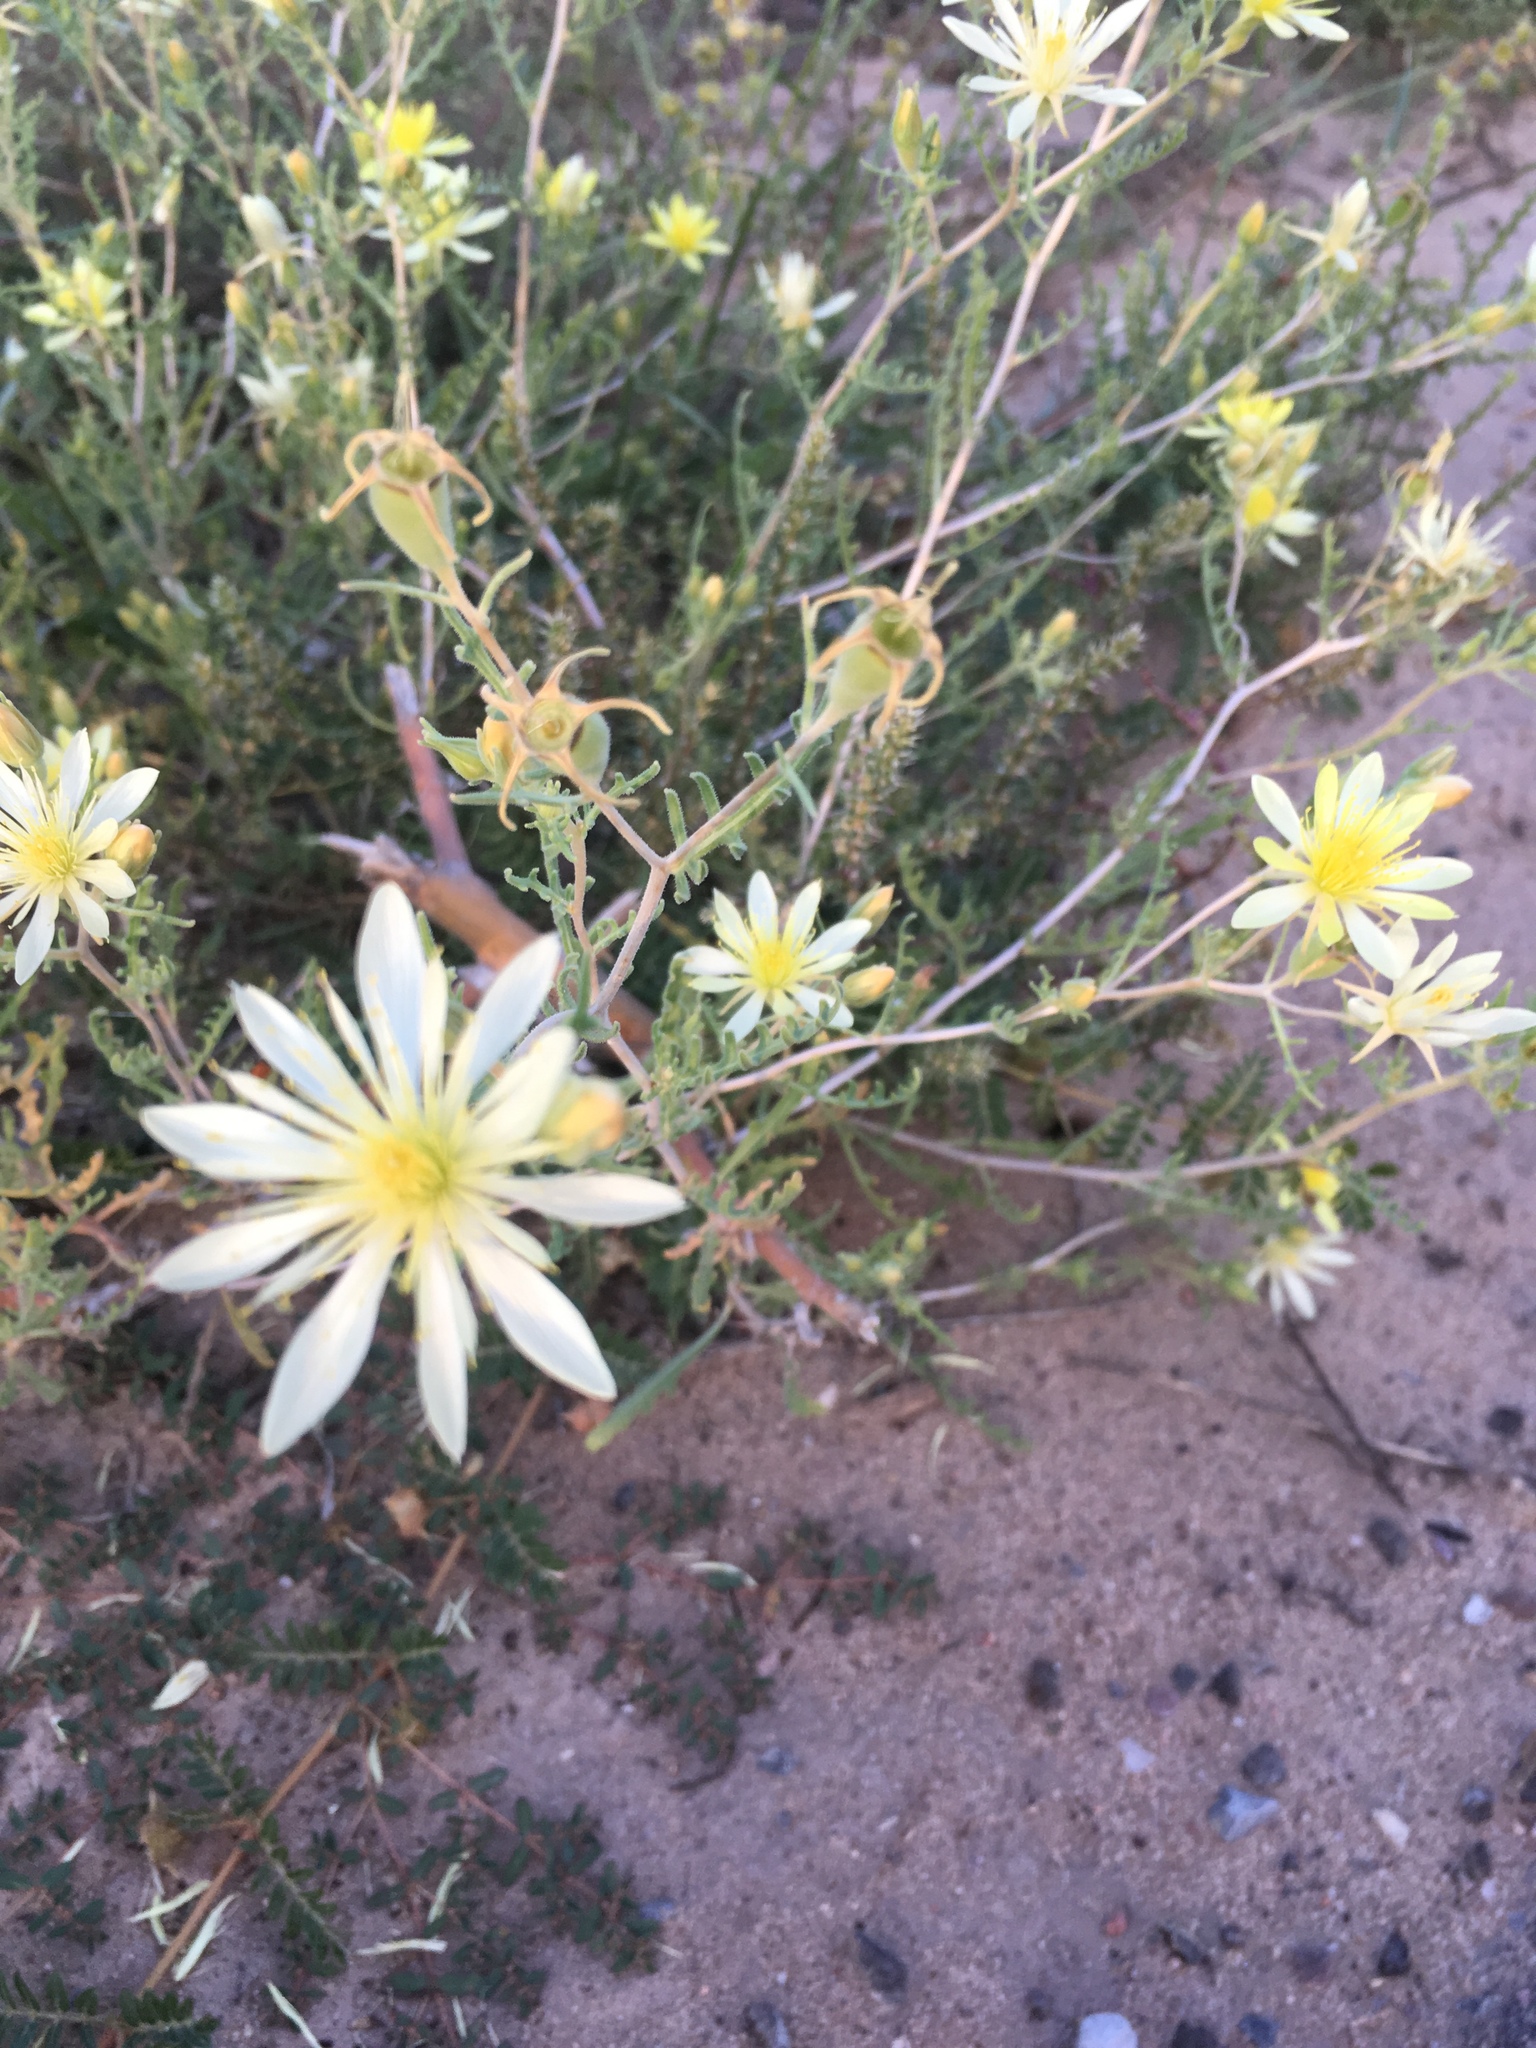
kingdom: Plantae
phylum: Tracheophyta
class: Magnoliopsida
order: Cornales
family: Loasaceae
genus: Mentzelia
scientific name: Mentzelia multiflora
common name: Adonis blazingstar
